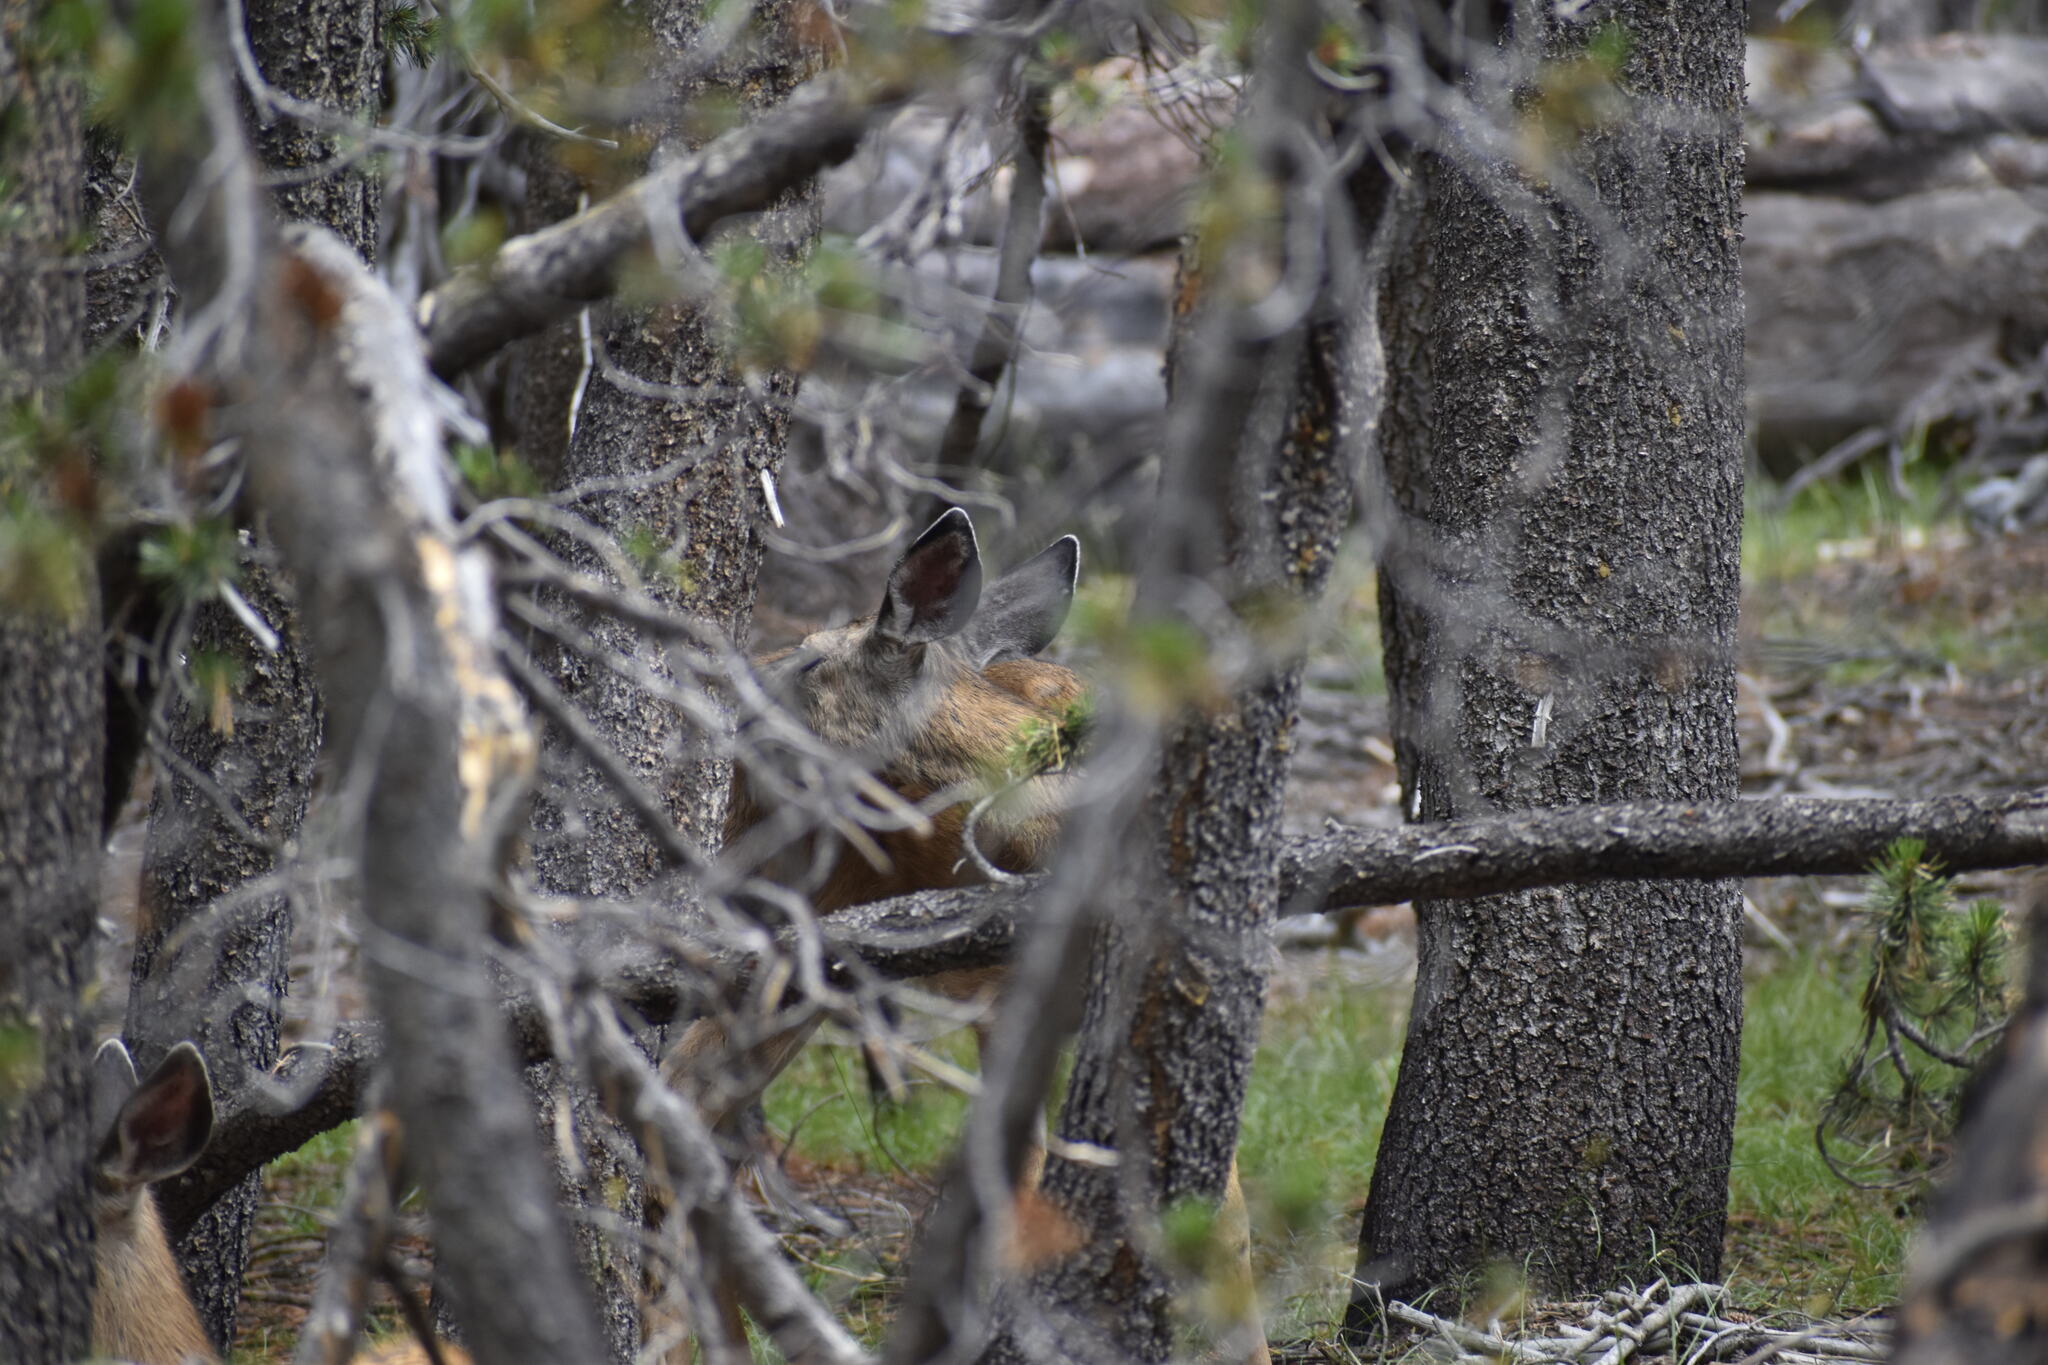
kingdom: Animalia
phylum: Chordata
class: Mammalia
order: Artiodactyla
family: Cervidae
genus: Odocoileus
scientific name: Odocoileus hemionus
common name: Mule deer
